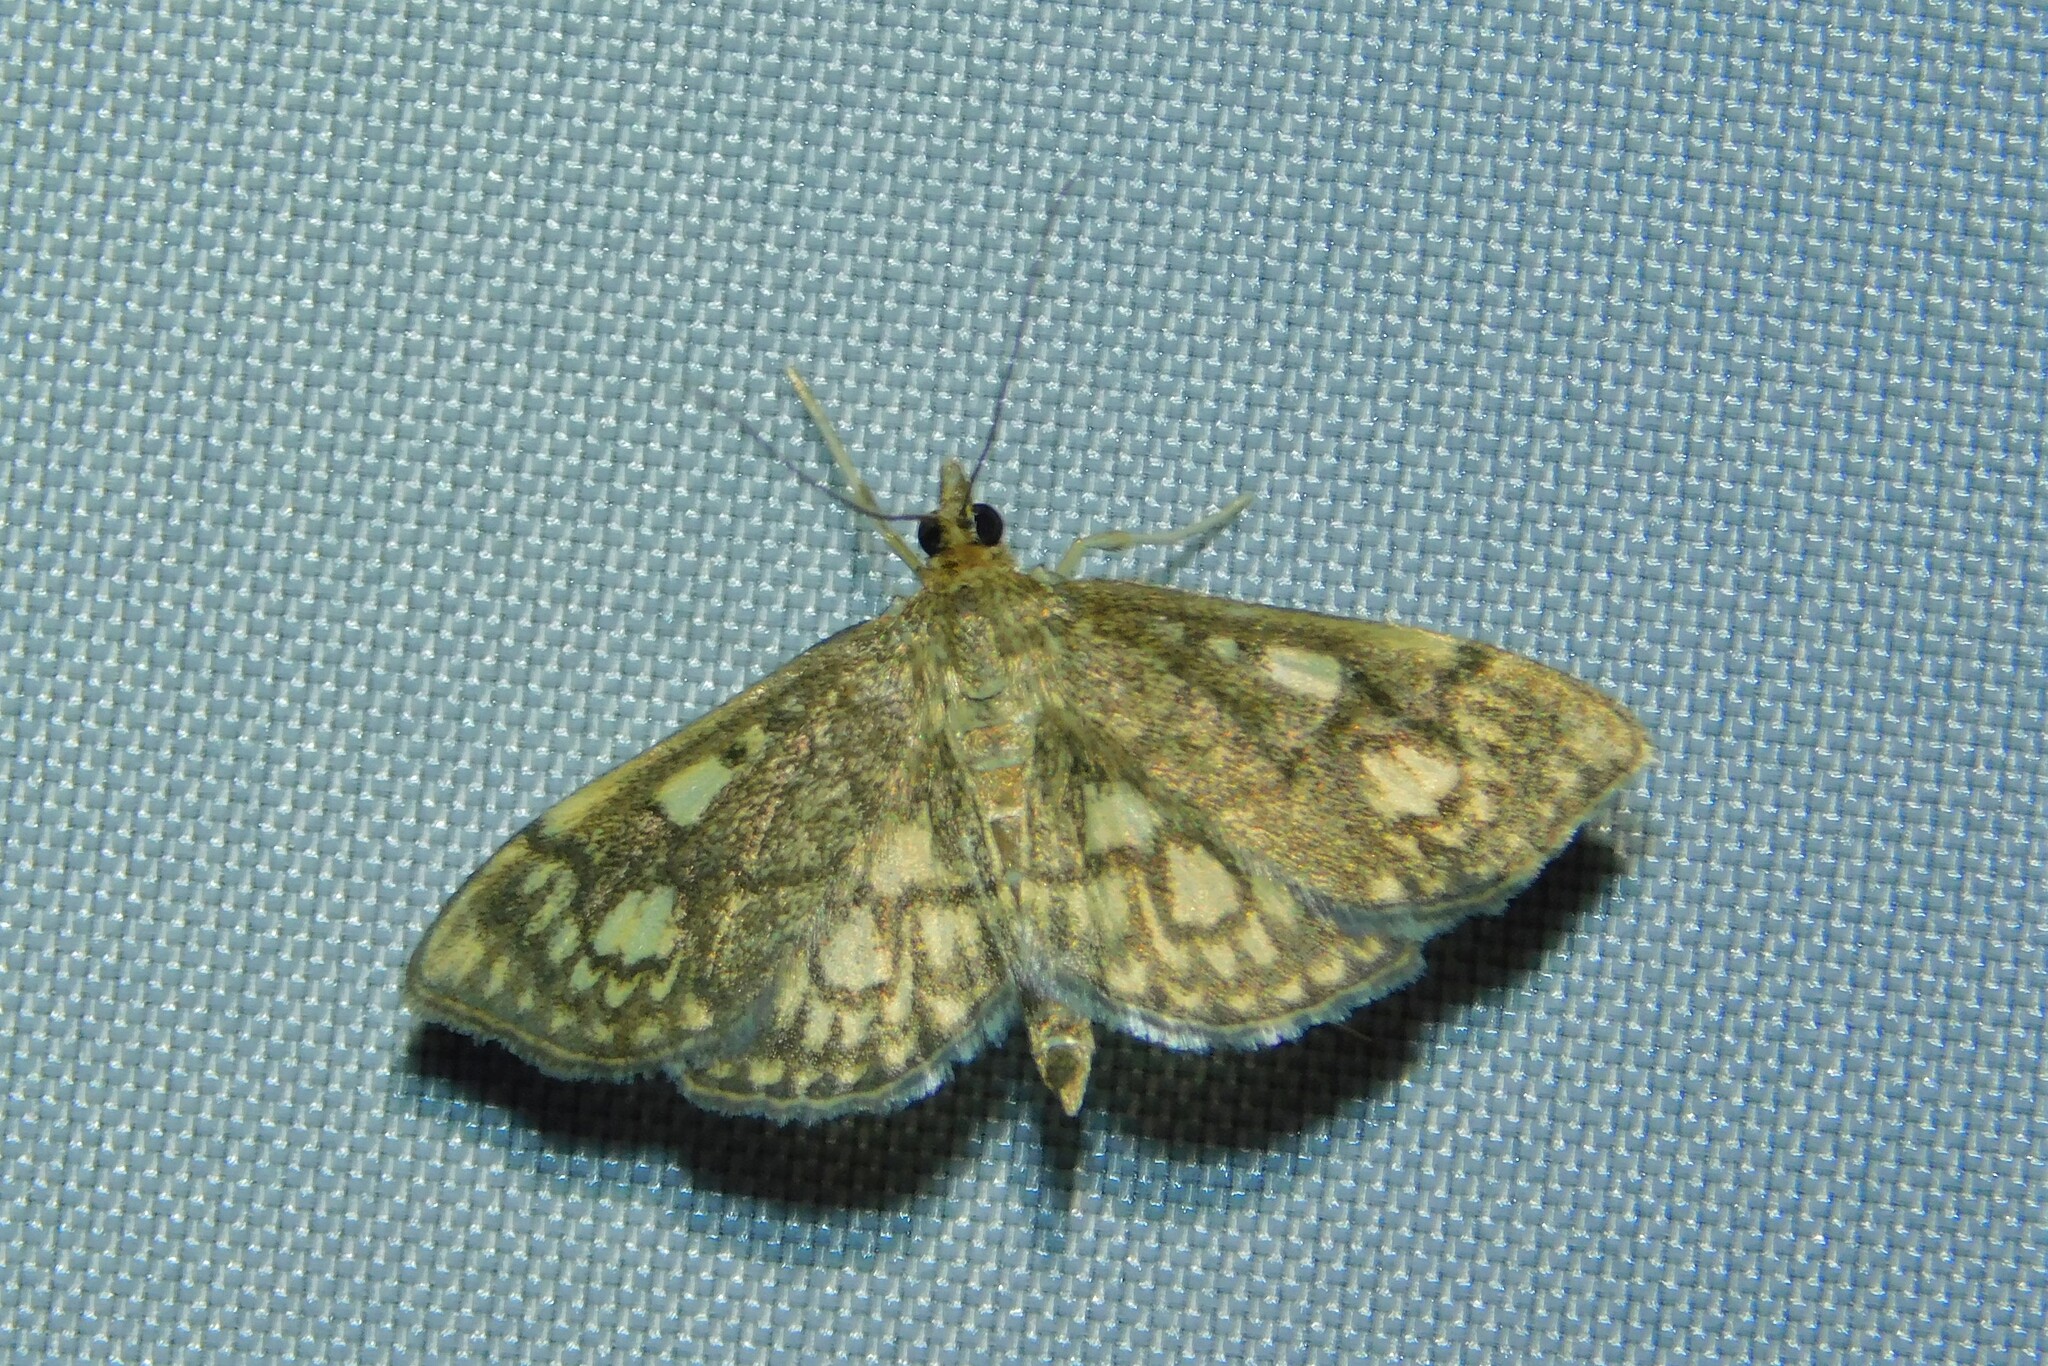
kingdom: Animalia
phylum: Arthropoda
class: Insecta
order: Lepidoptera
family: Crambidae
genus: Anania
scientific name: Anania stachydalis
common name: Woundwort pearl
